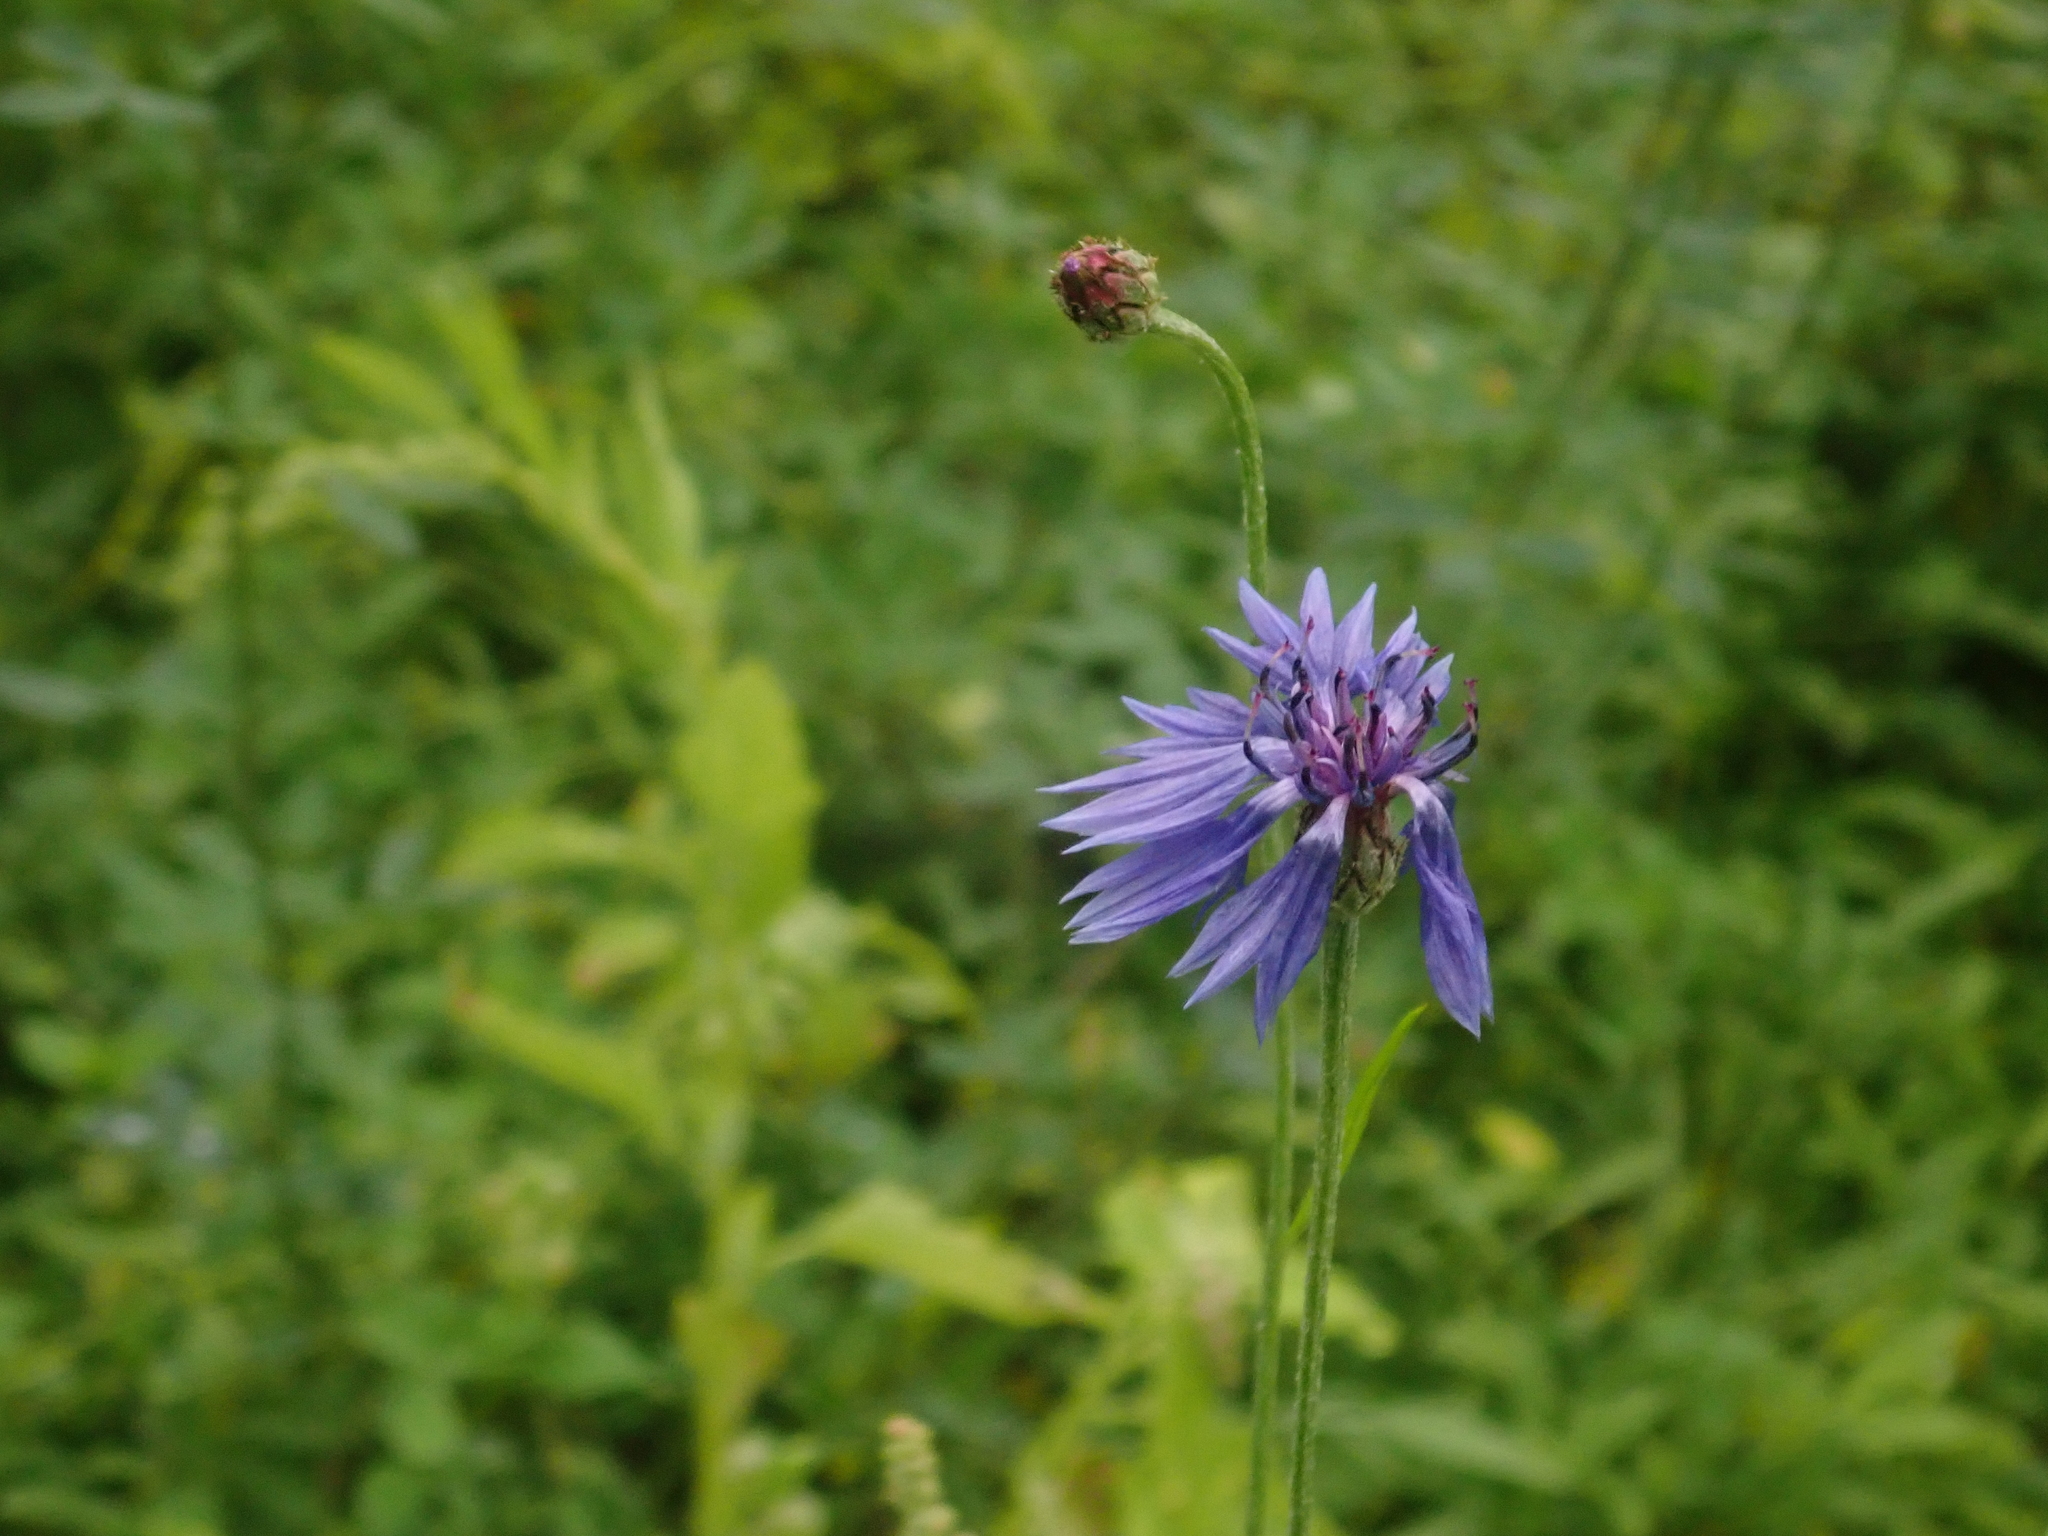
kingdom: Plantae
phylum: Tracheophyta
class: Magnoliopsida
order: Asterales
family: Asteraceae
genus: Centaurea
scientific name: Centaurea cyanus
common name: Cornflower
